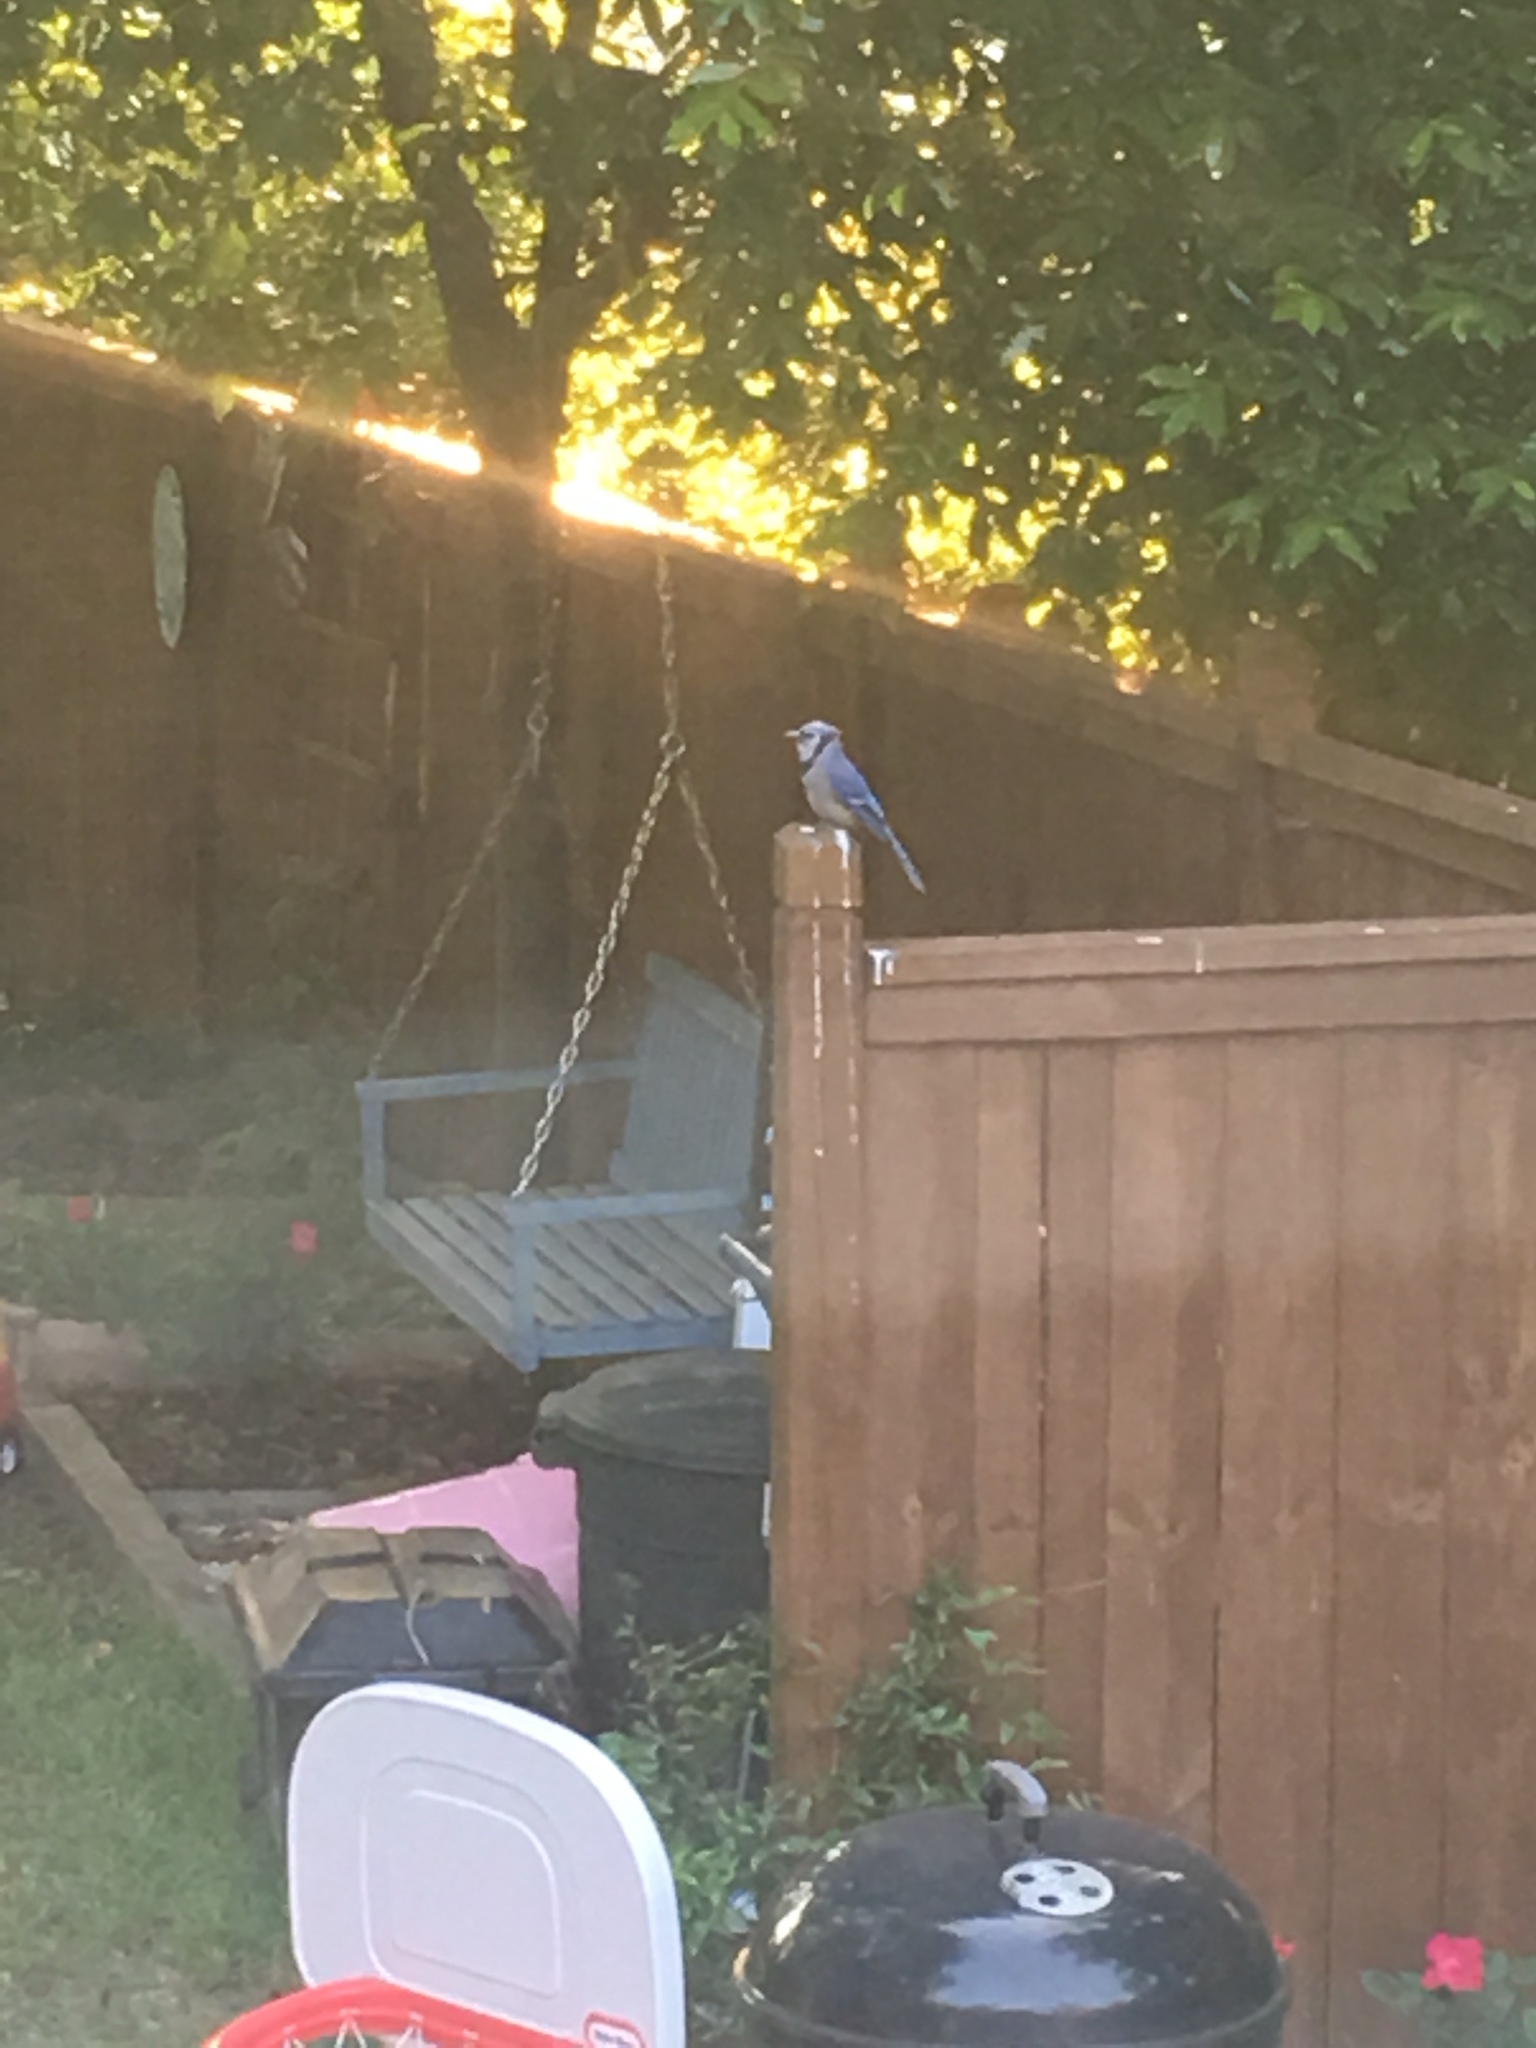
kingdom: Animalia
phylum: Chordata
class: Aves
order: Passeriformes
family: Corvidae
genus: Cyanocitta
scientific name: Cyanocitta cristata
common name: Blue jay
